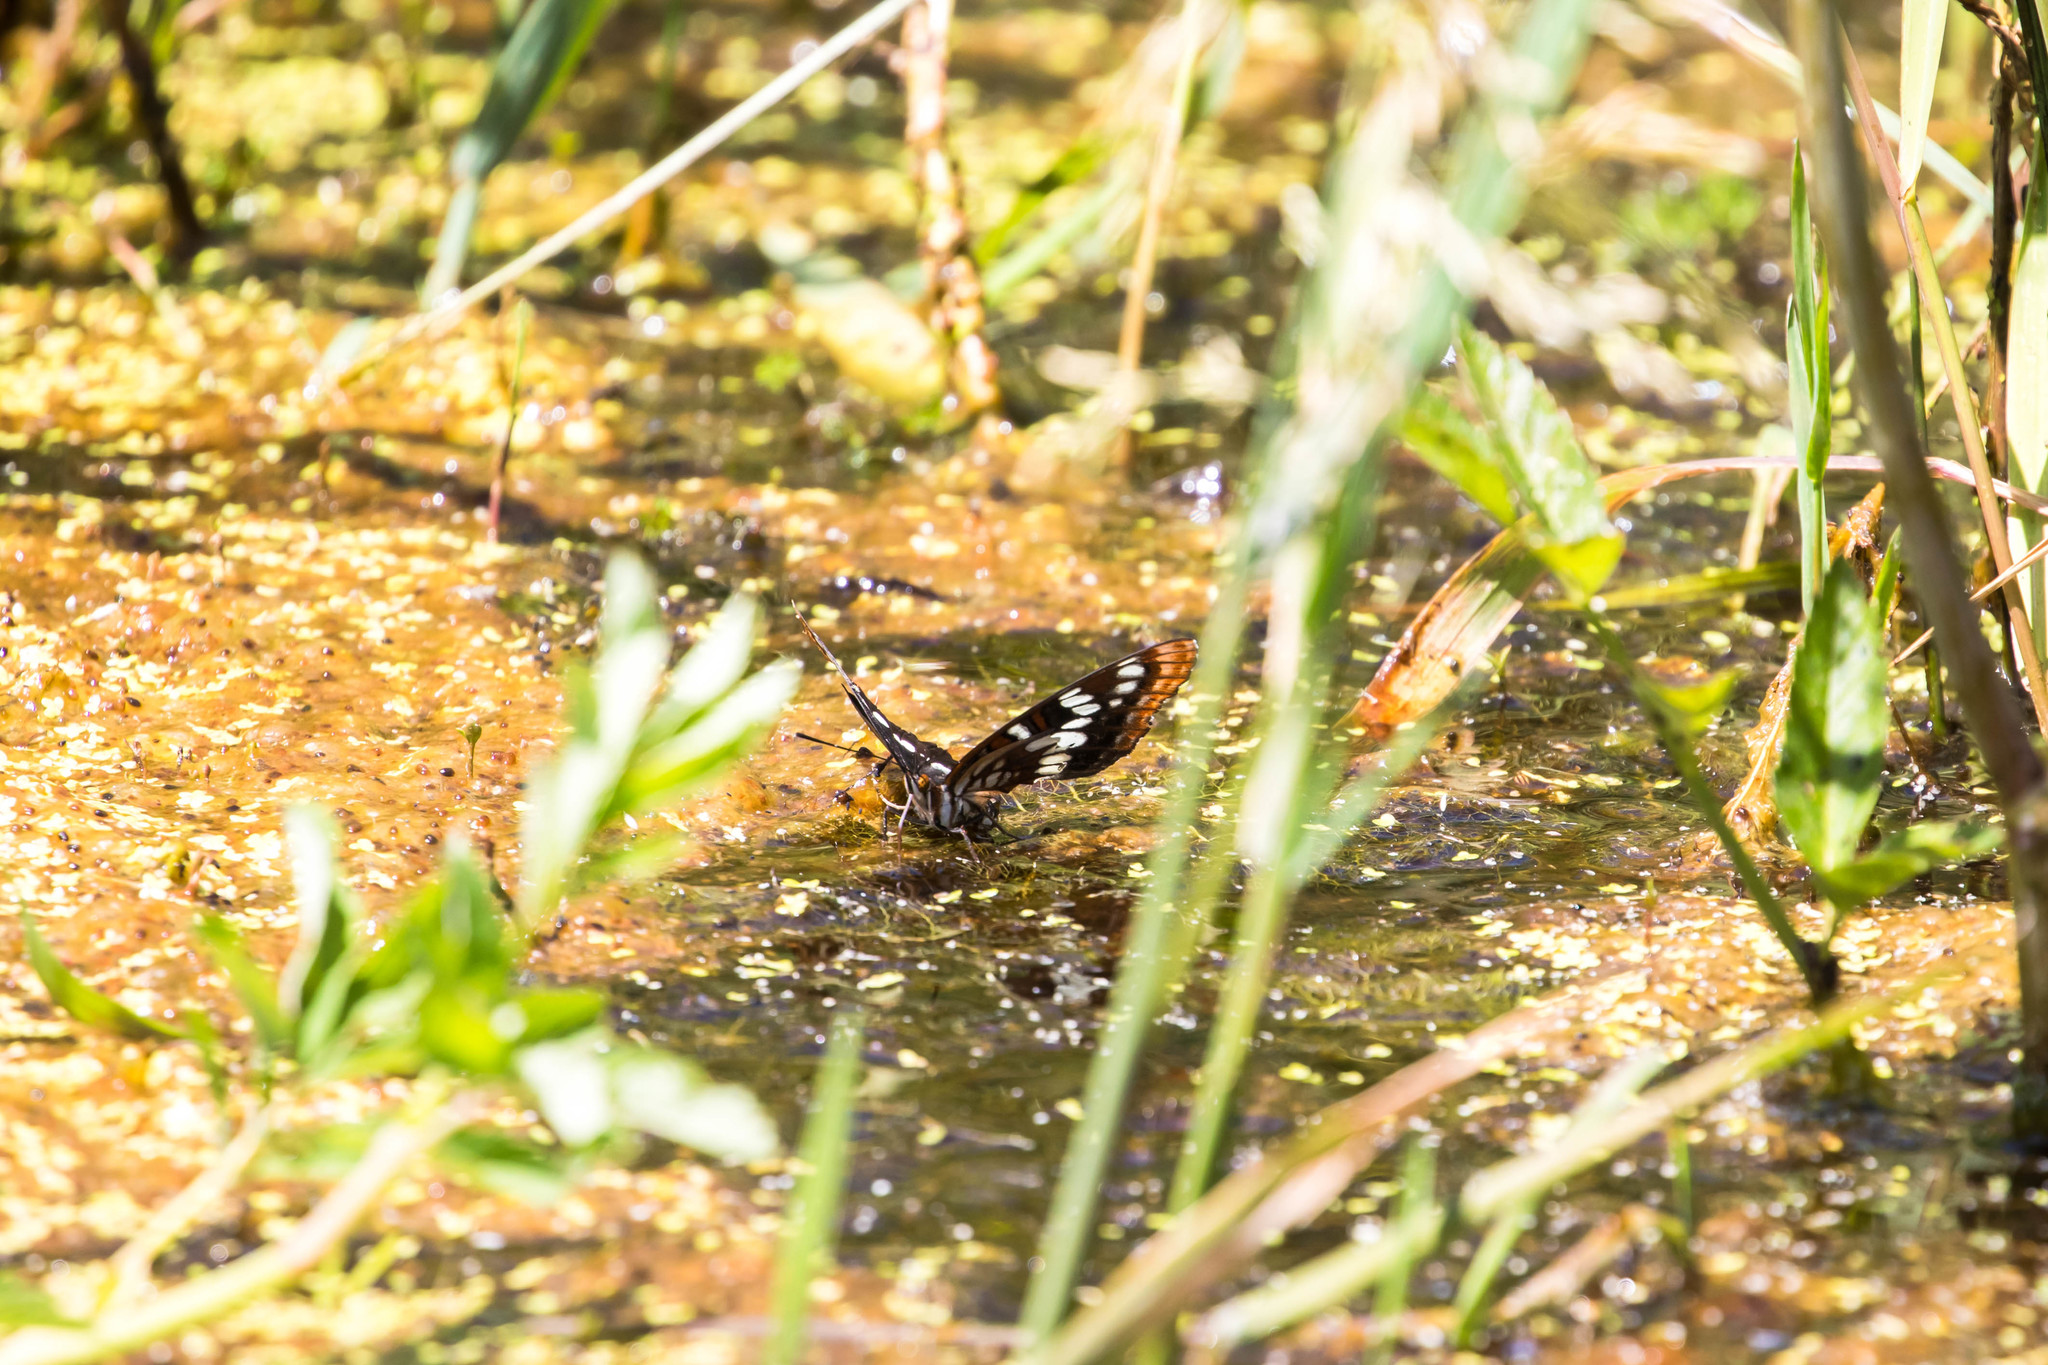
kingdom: Animalia
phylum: Arthropoda
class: Insecta
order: Lepidoptera
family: Nymphalidae
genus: Limenitis
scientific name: Limenitis lorquini
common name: Lorquin's admiral
